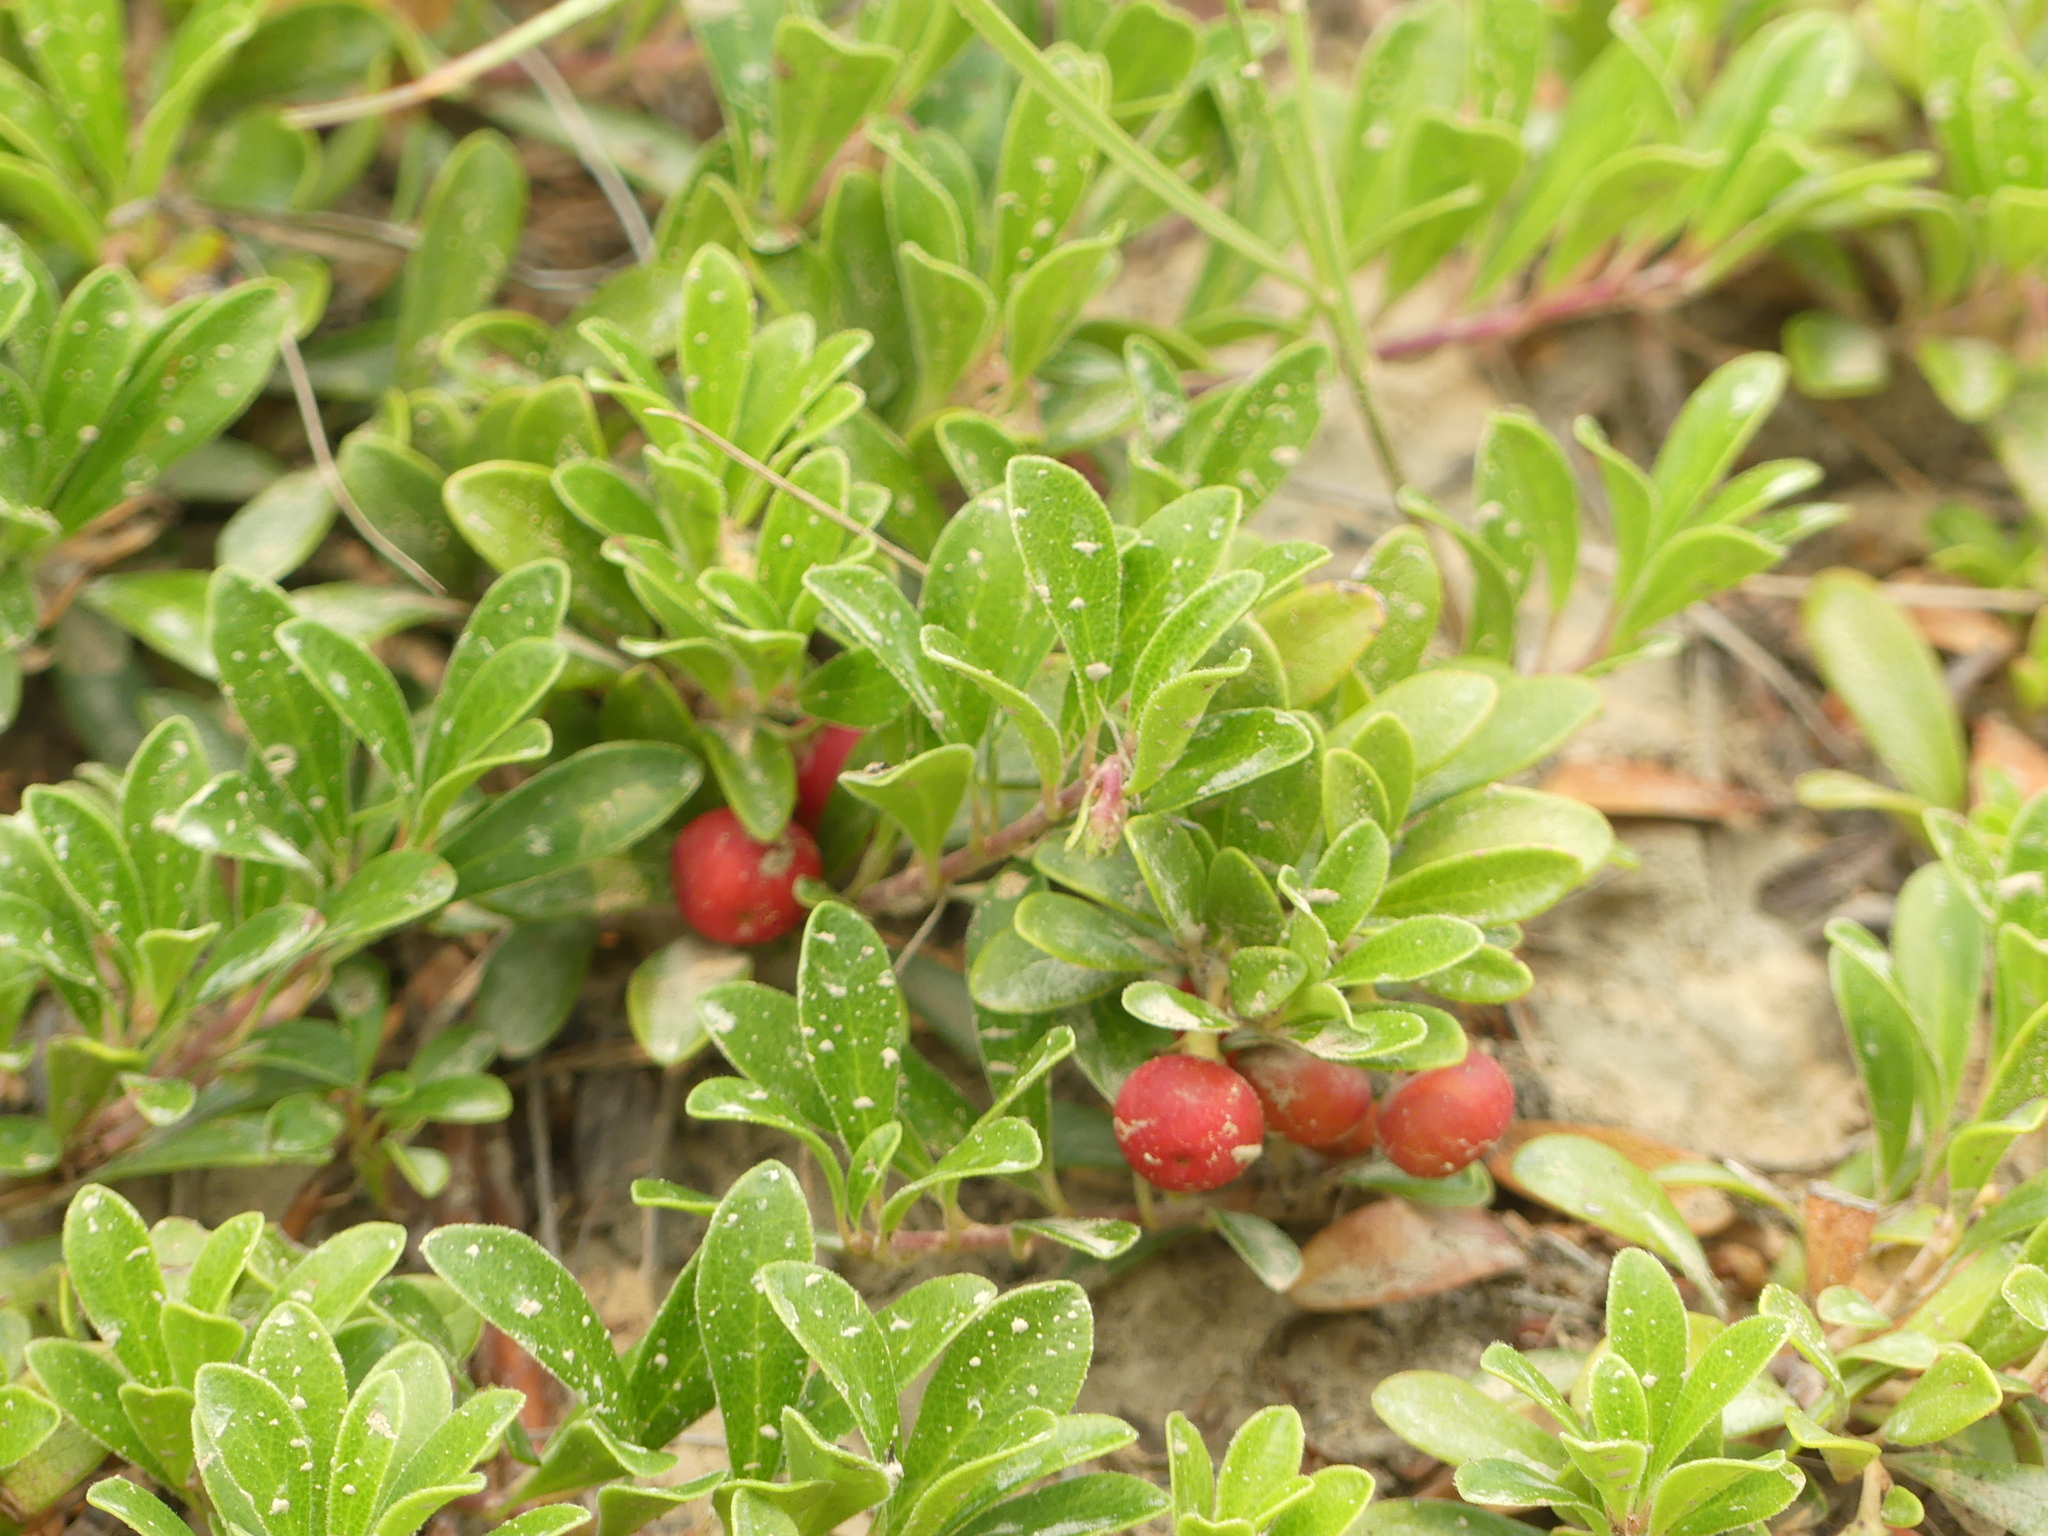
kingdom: Plantae
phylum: Tracheophyta
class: Magnoliopsida
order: Ericales
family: Ericaceae
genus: Arctostaphylos
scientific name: Arctostaphylos uva-ursi
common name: Bearberry
